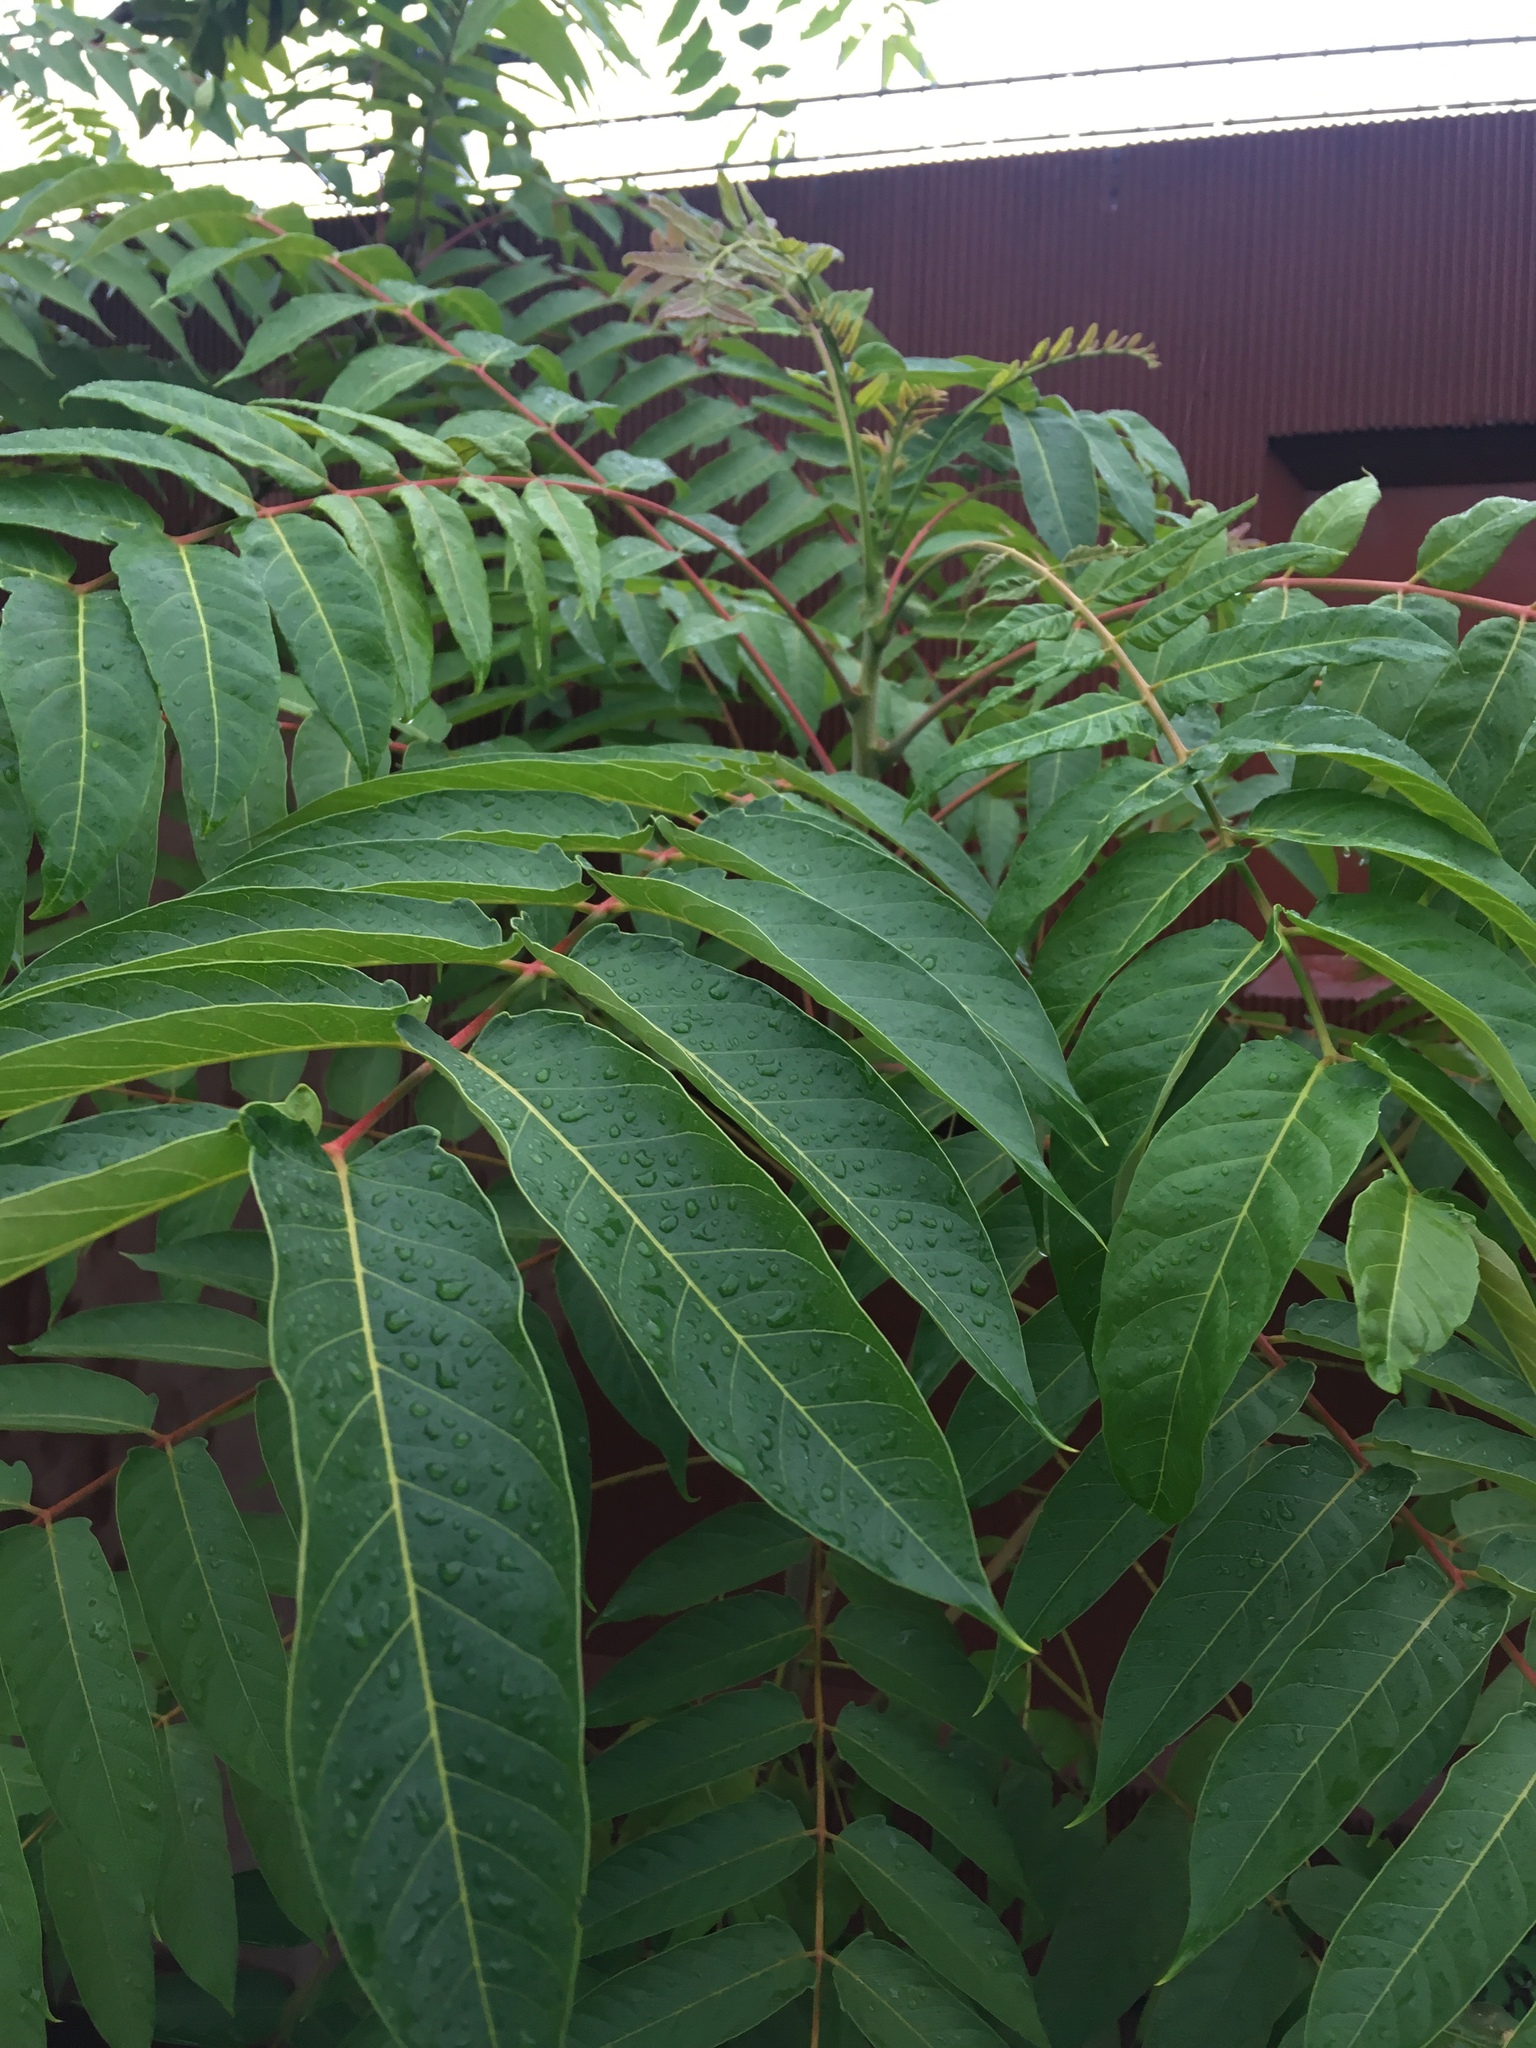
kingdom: Plantae
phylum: Tracheophyta
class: Magnoliopsida
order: Sapindales
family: Simaroubaceae
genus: Ailanthus
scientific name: Ailanthus altissima
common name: Tree-of-heaven
